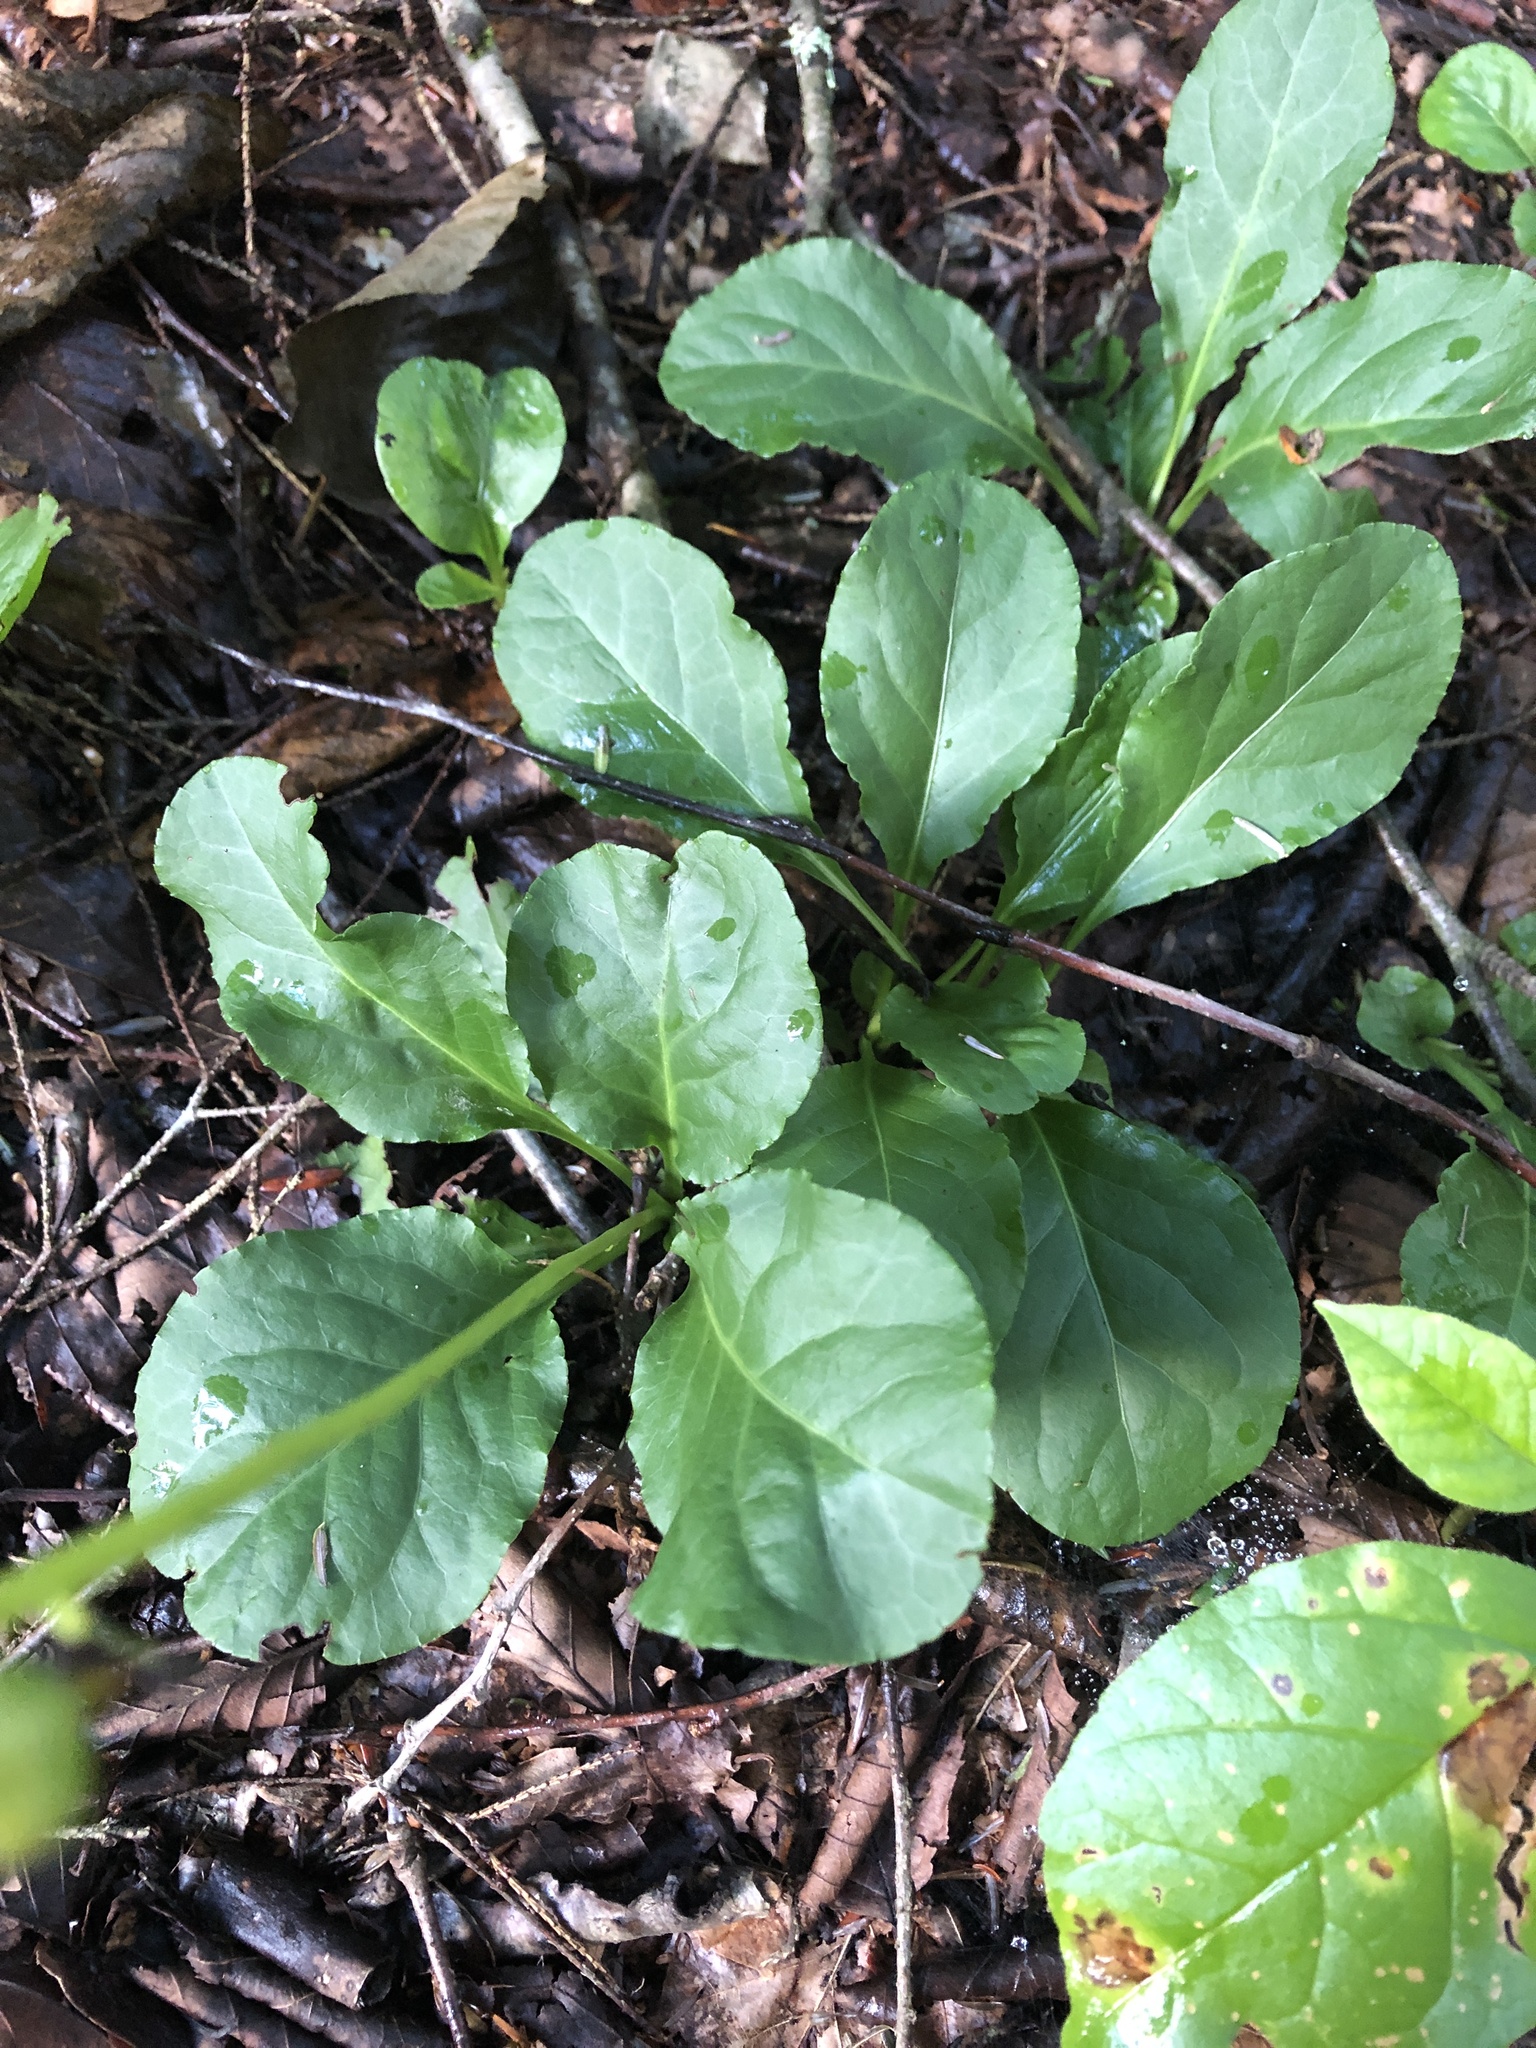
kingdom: Plantae
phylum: Tracheophyta
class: Magnoliopsida
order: Ericales
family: Ericaceae
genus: Pyrola
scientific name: Pyrola elliptica
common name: Shinleaf
